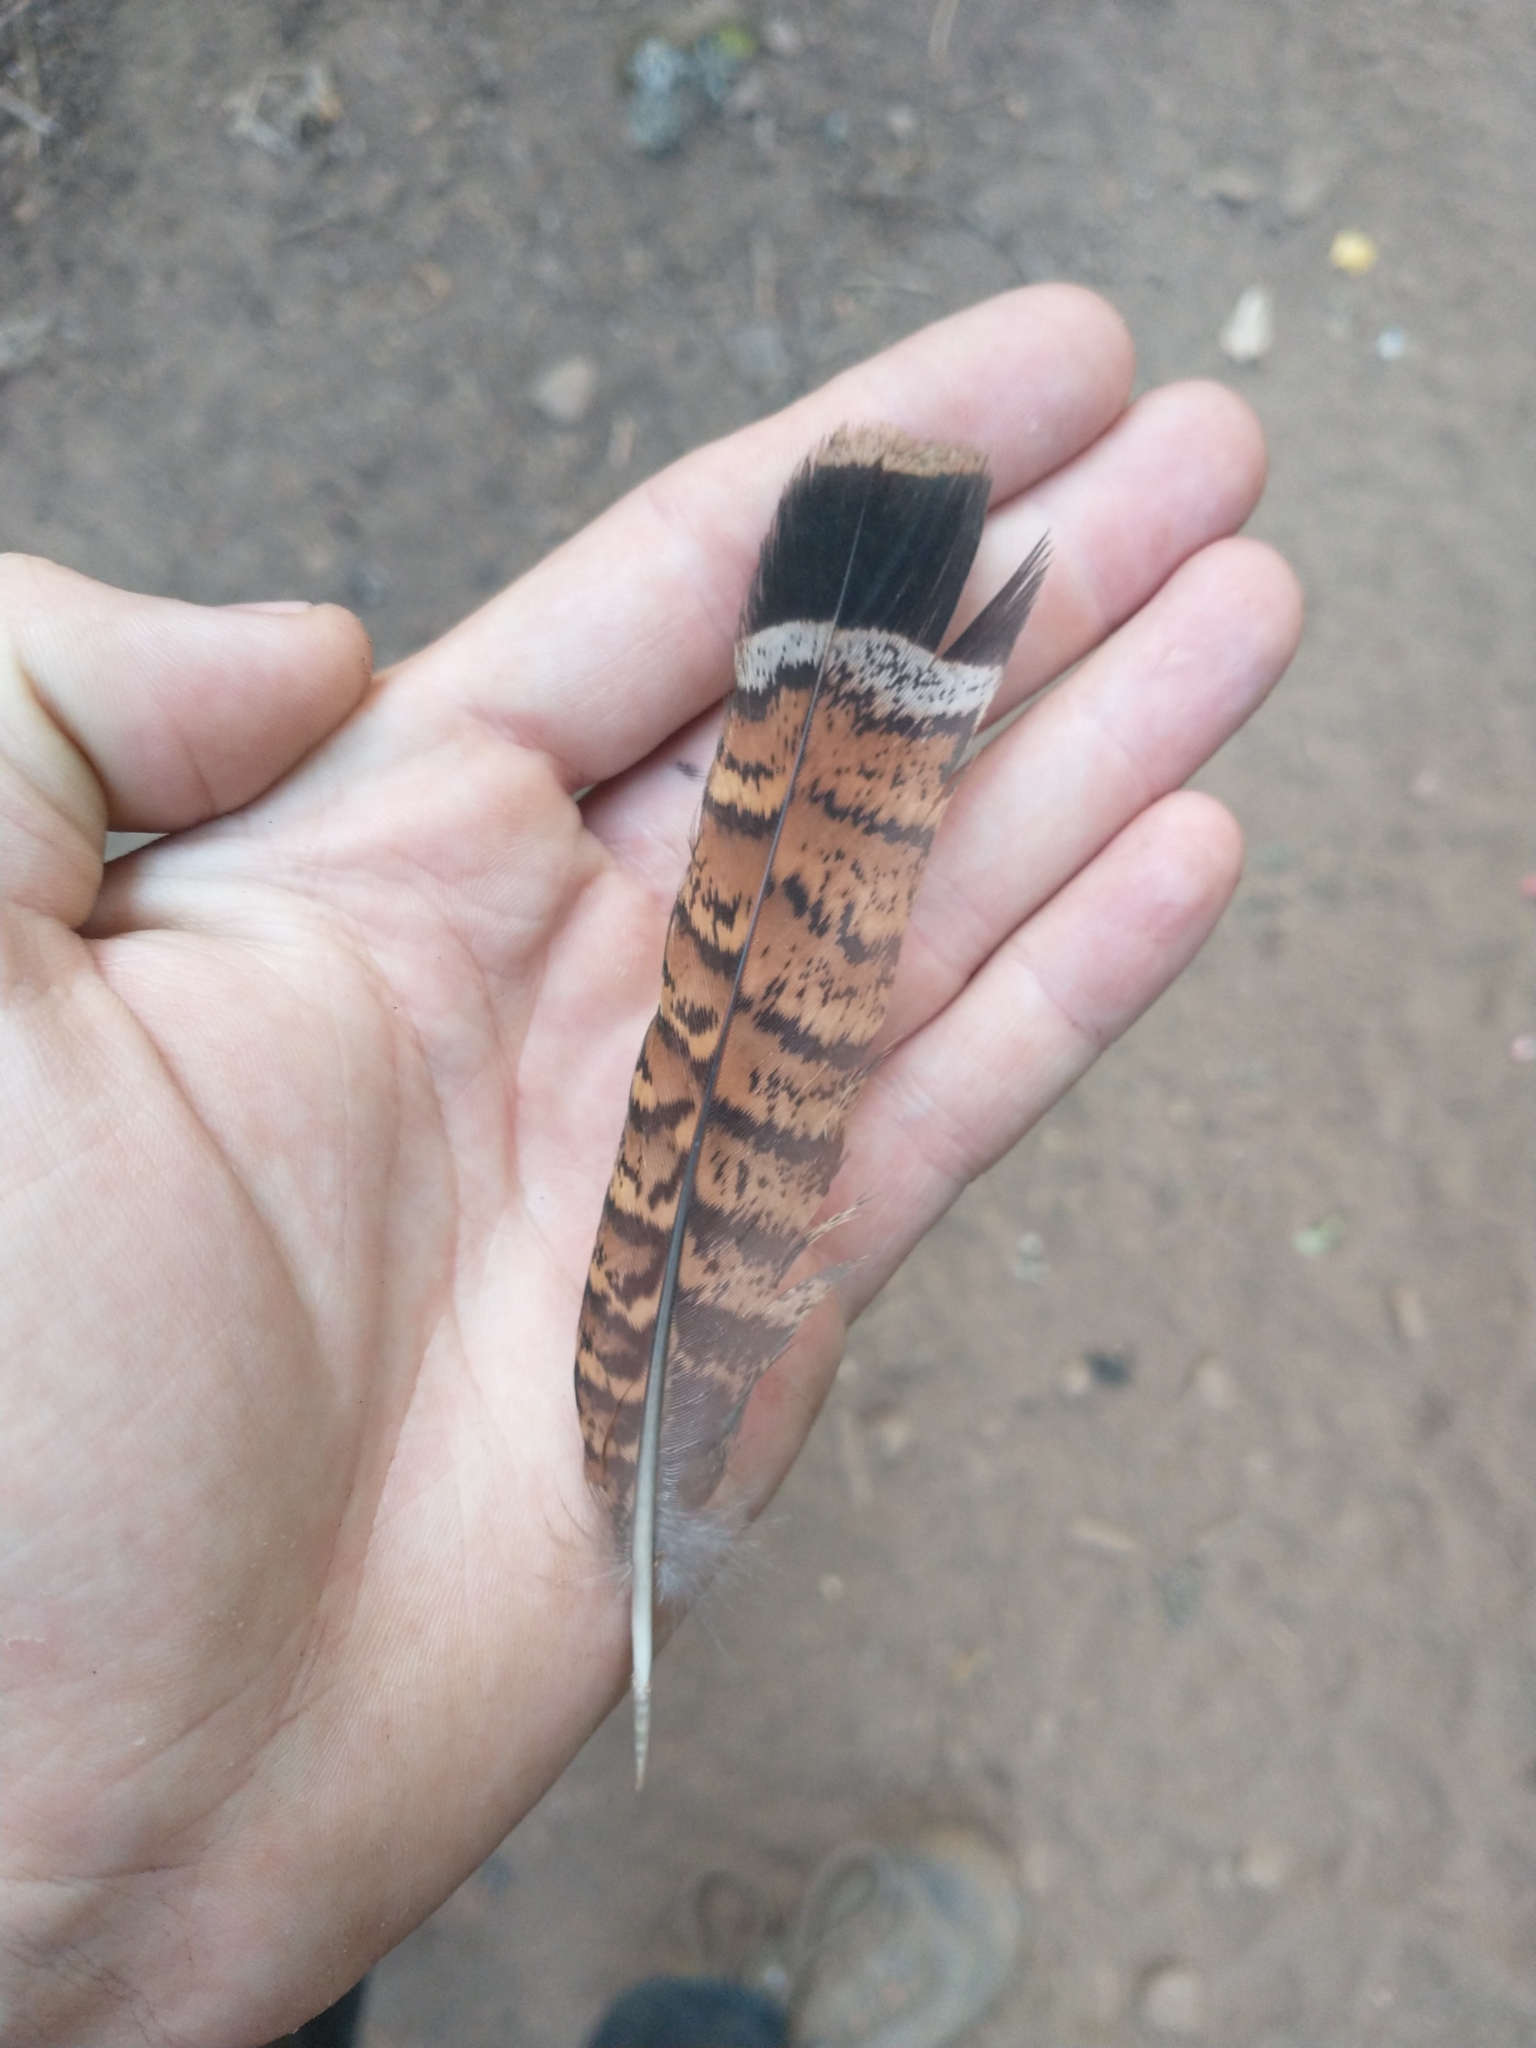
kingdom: Animalia
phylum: Chordata
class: Aves
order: Galliformes
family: Phasianidae
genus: Bonasa
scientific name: Bonasa umbellus
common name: Ruffed grouse
